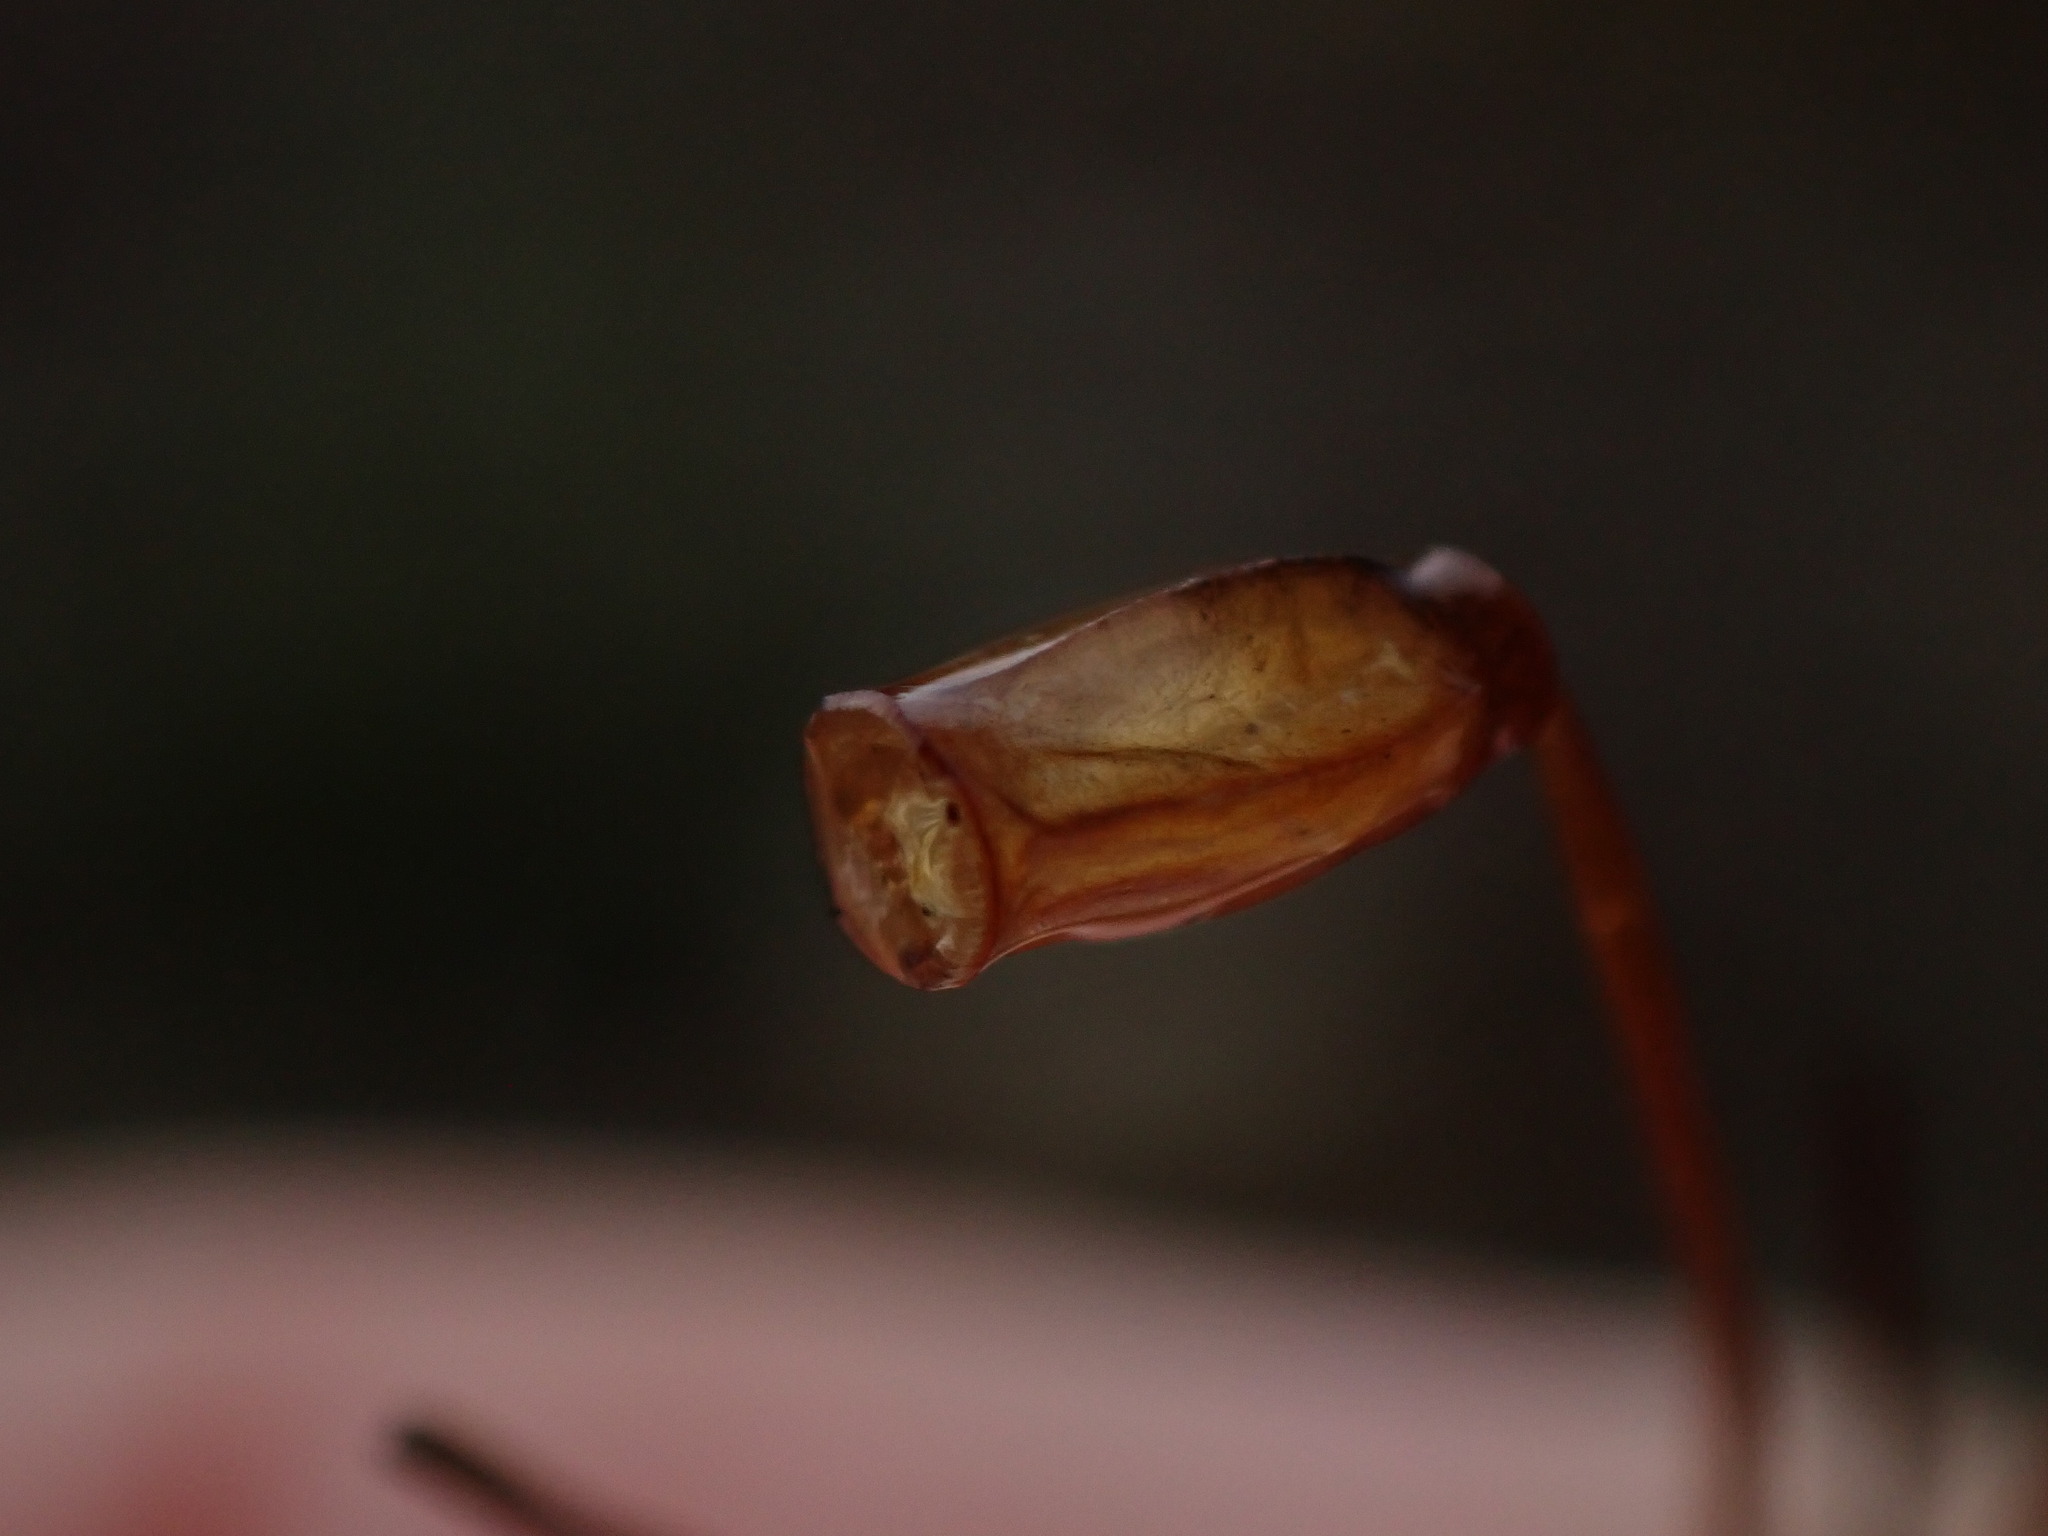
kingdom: Plantae
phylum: Bryophyta
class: Polytrichopsida
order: Polytrichales
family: Polytrichaceae
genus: Polytrichum
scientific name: Polytrichum juniperinum
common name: Juniper haircap moss
